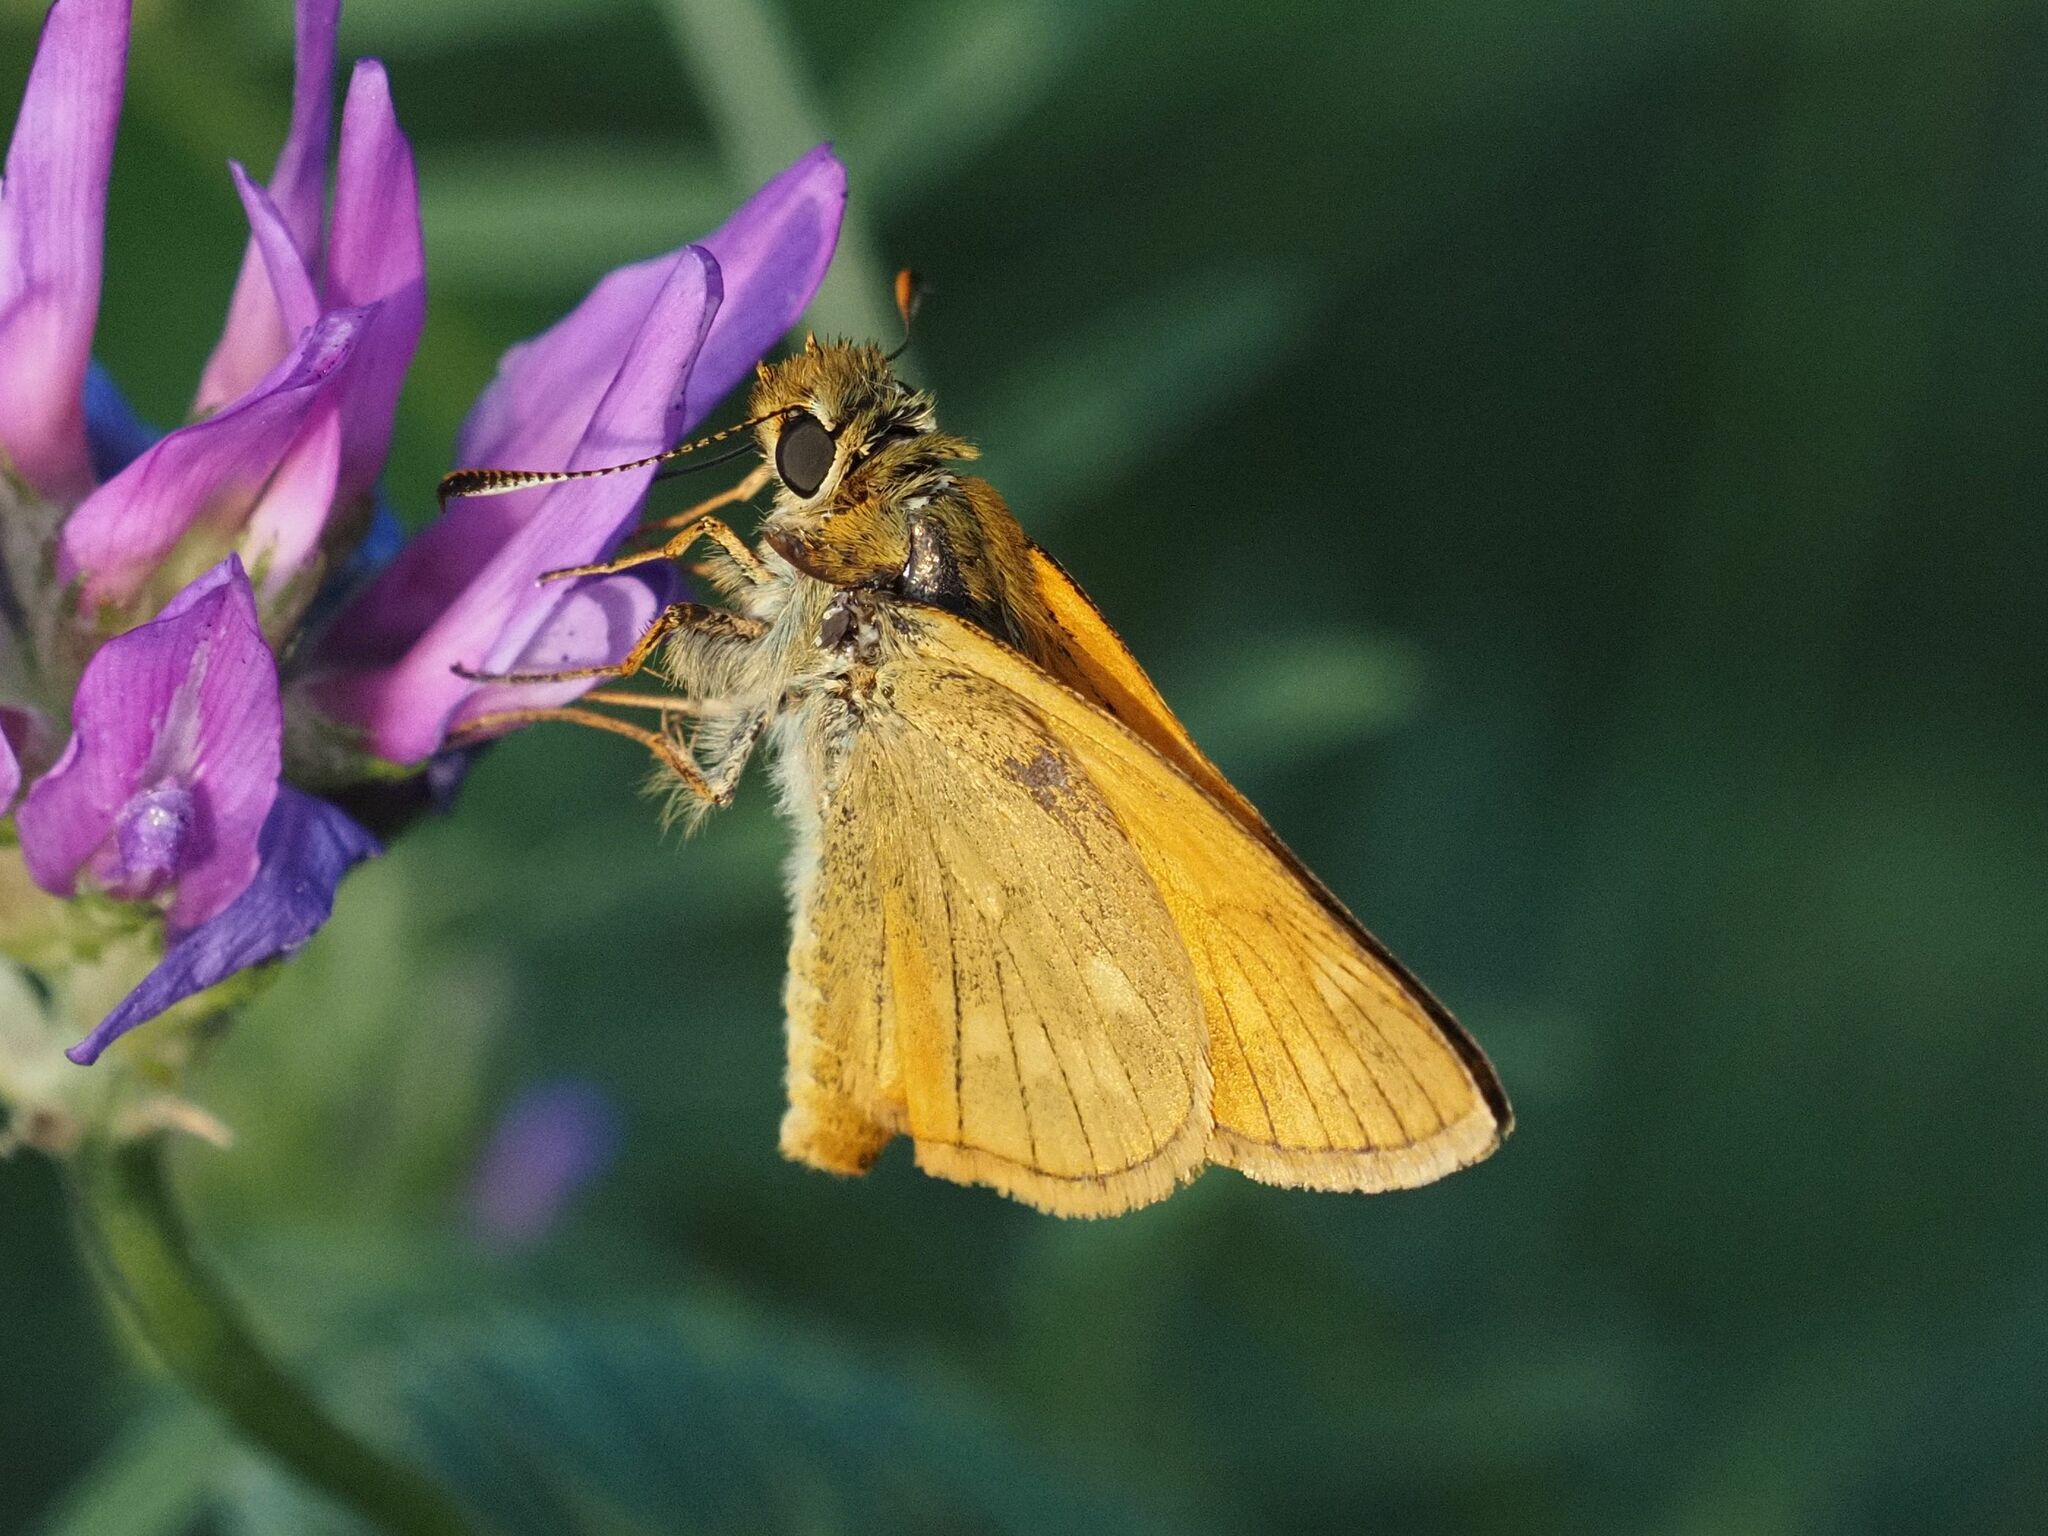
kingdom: Animalia
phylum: Arthropoda
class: Insecta
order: Lepidoptera
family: Hesperiidae
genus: Ochlodes
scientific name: Ochlodes venata
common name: Large skipper
